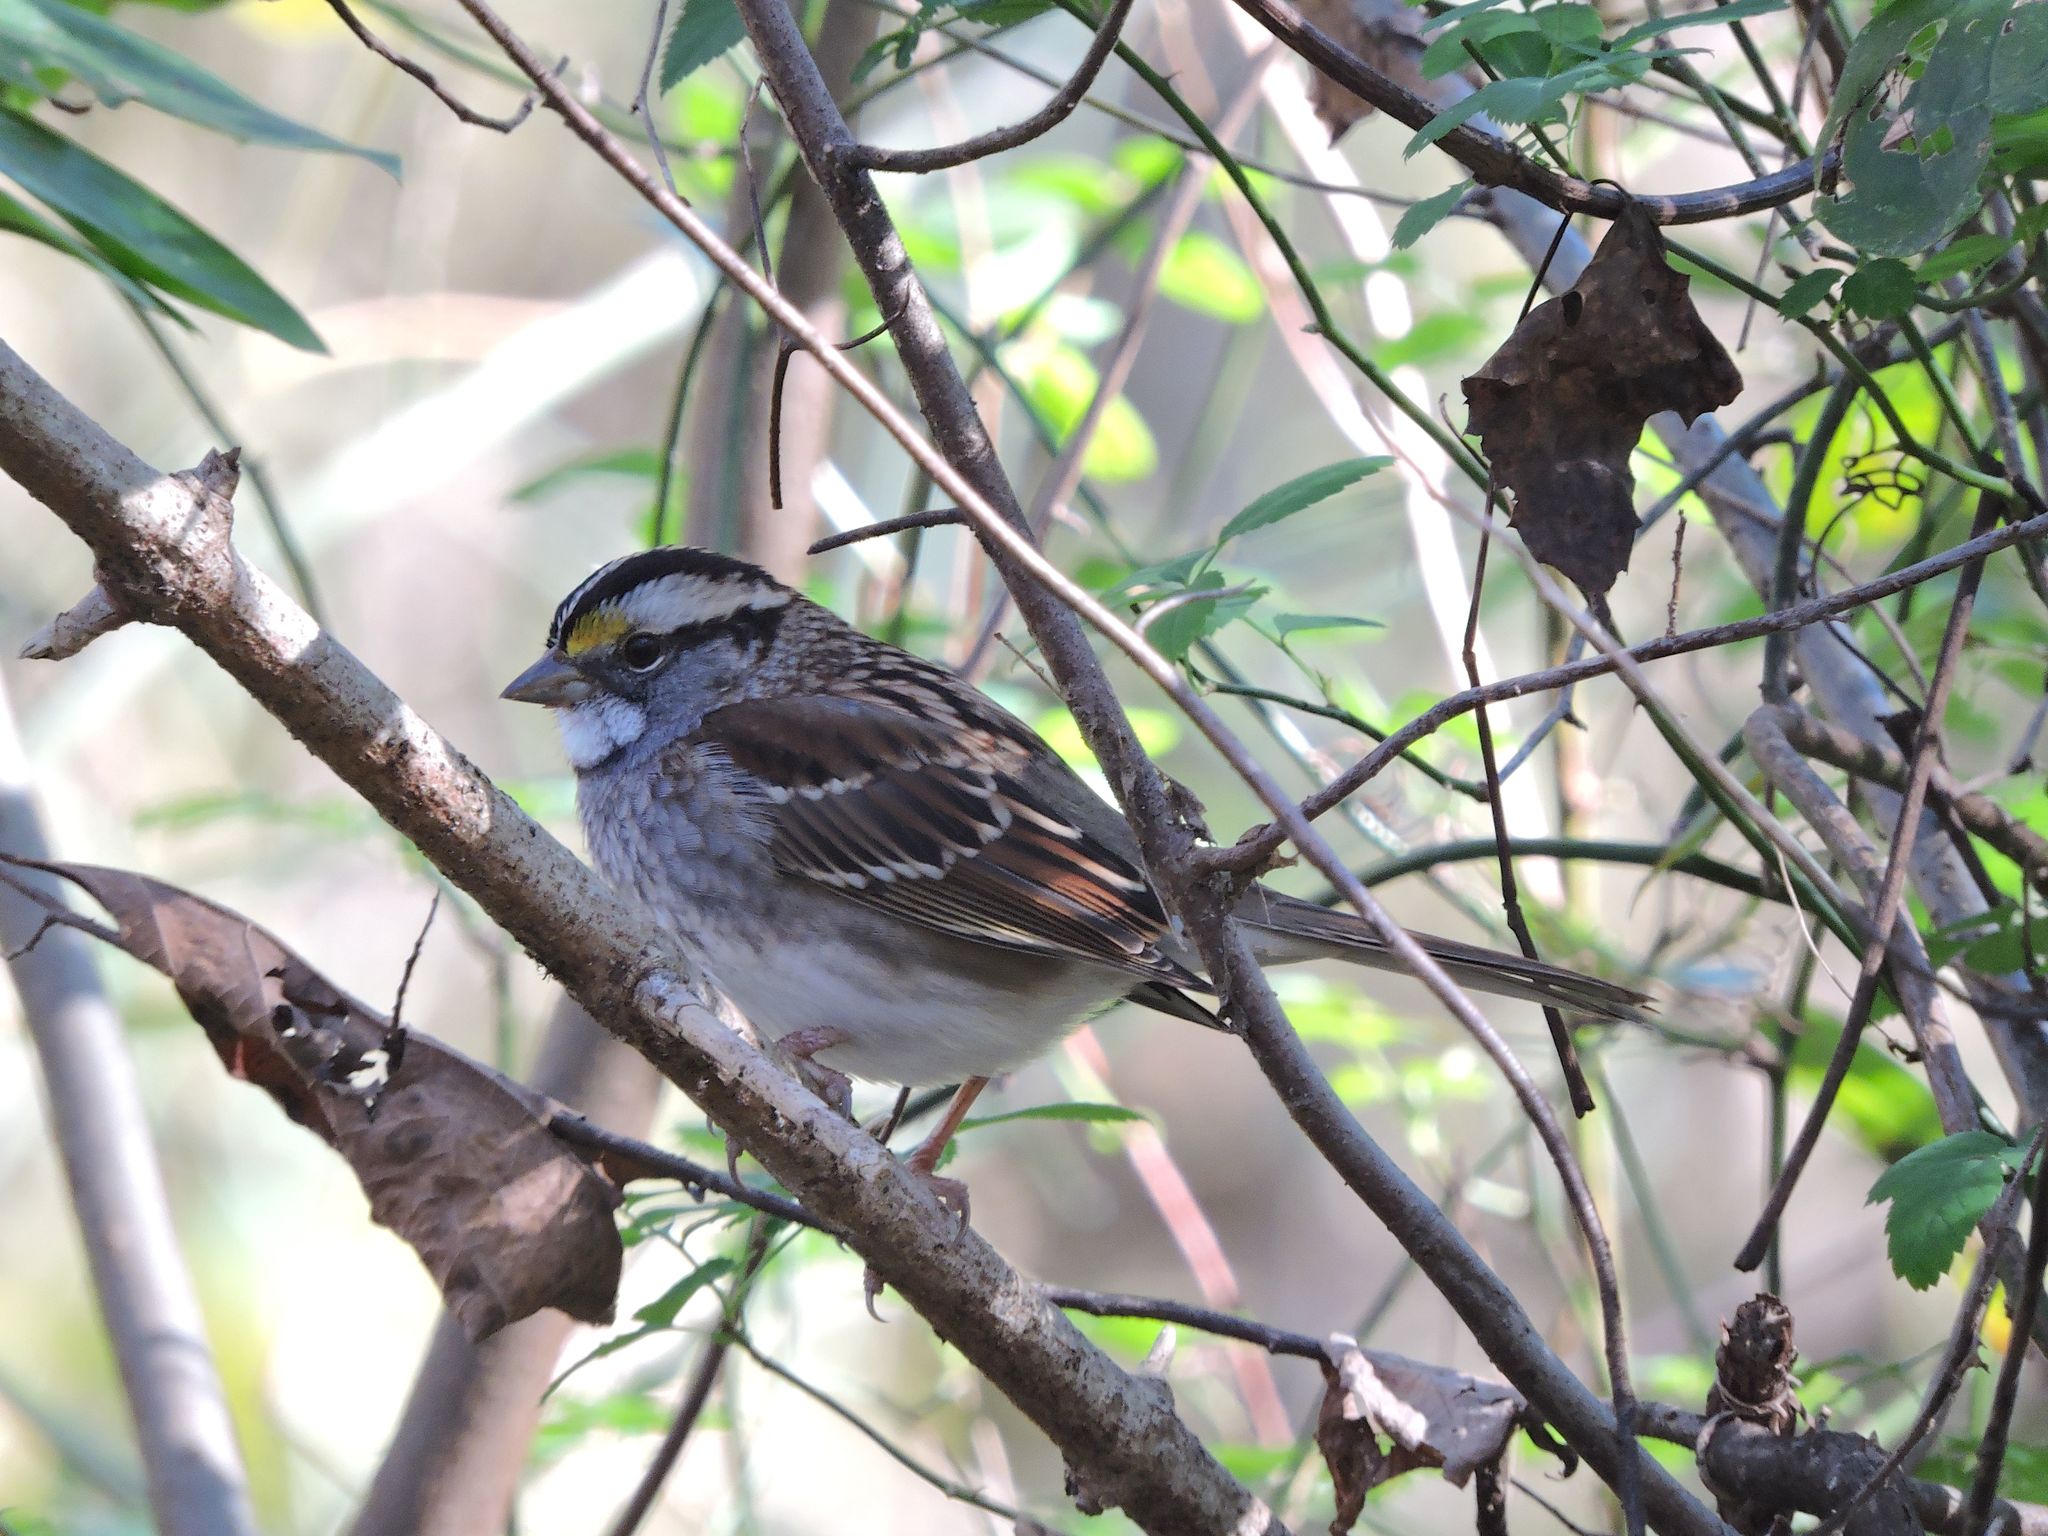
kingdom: Animalia
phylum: Chordata
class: Aves
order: Passeriformes
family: Passerellidae
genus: Zonotrichia
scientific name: Zonotrichia albicollis
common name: White-throated sparrow
